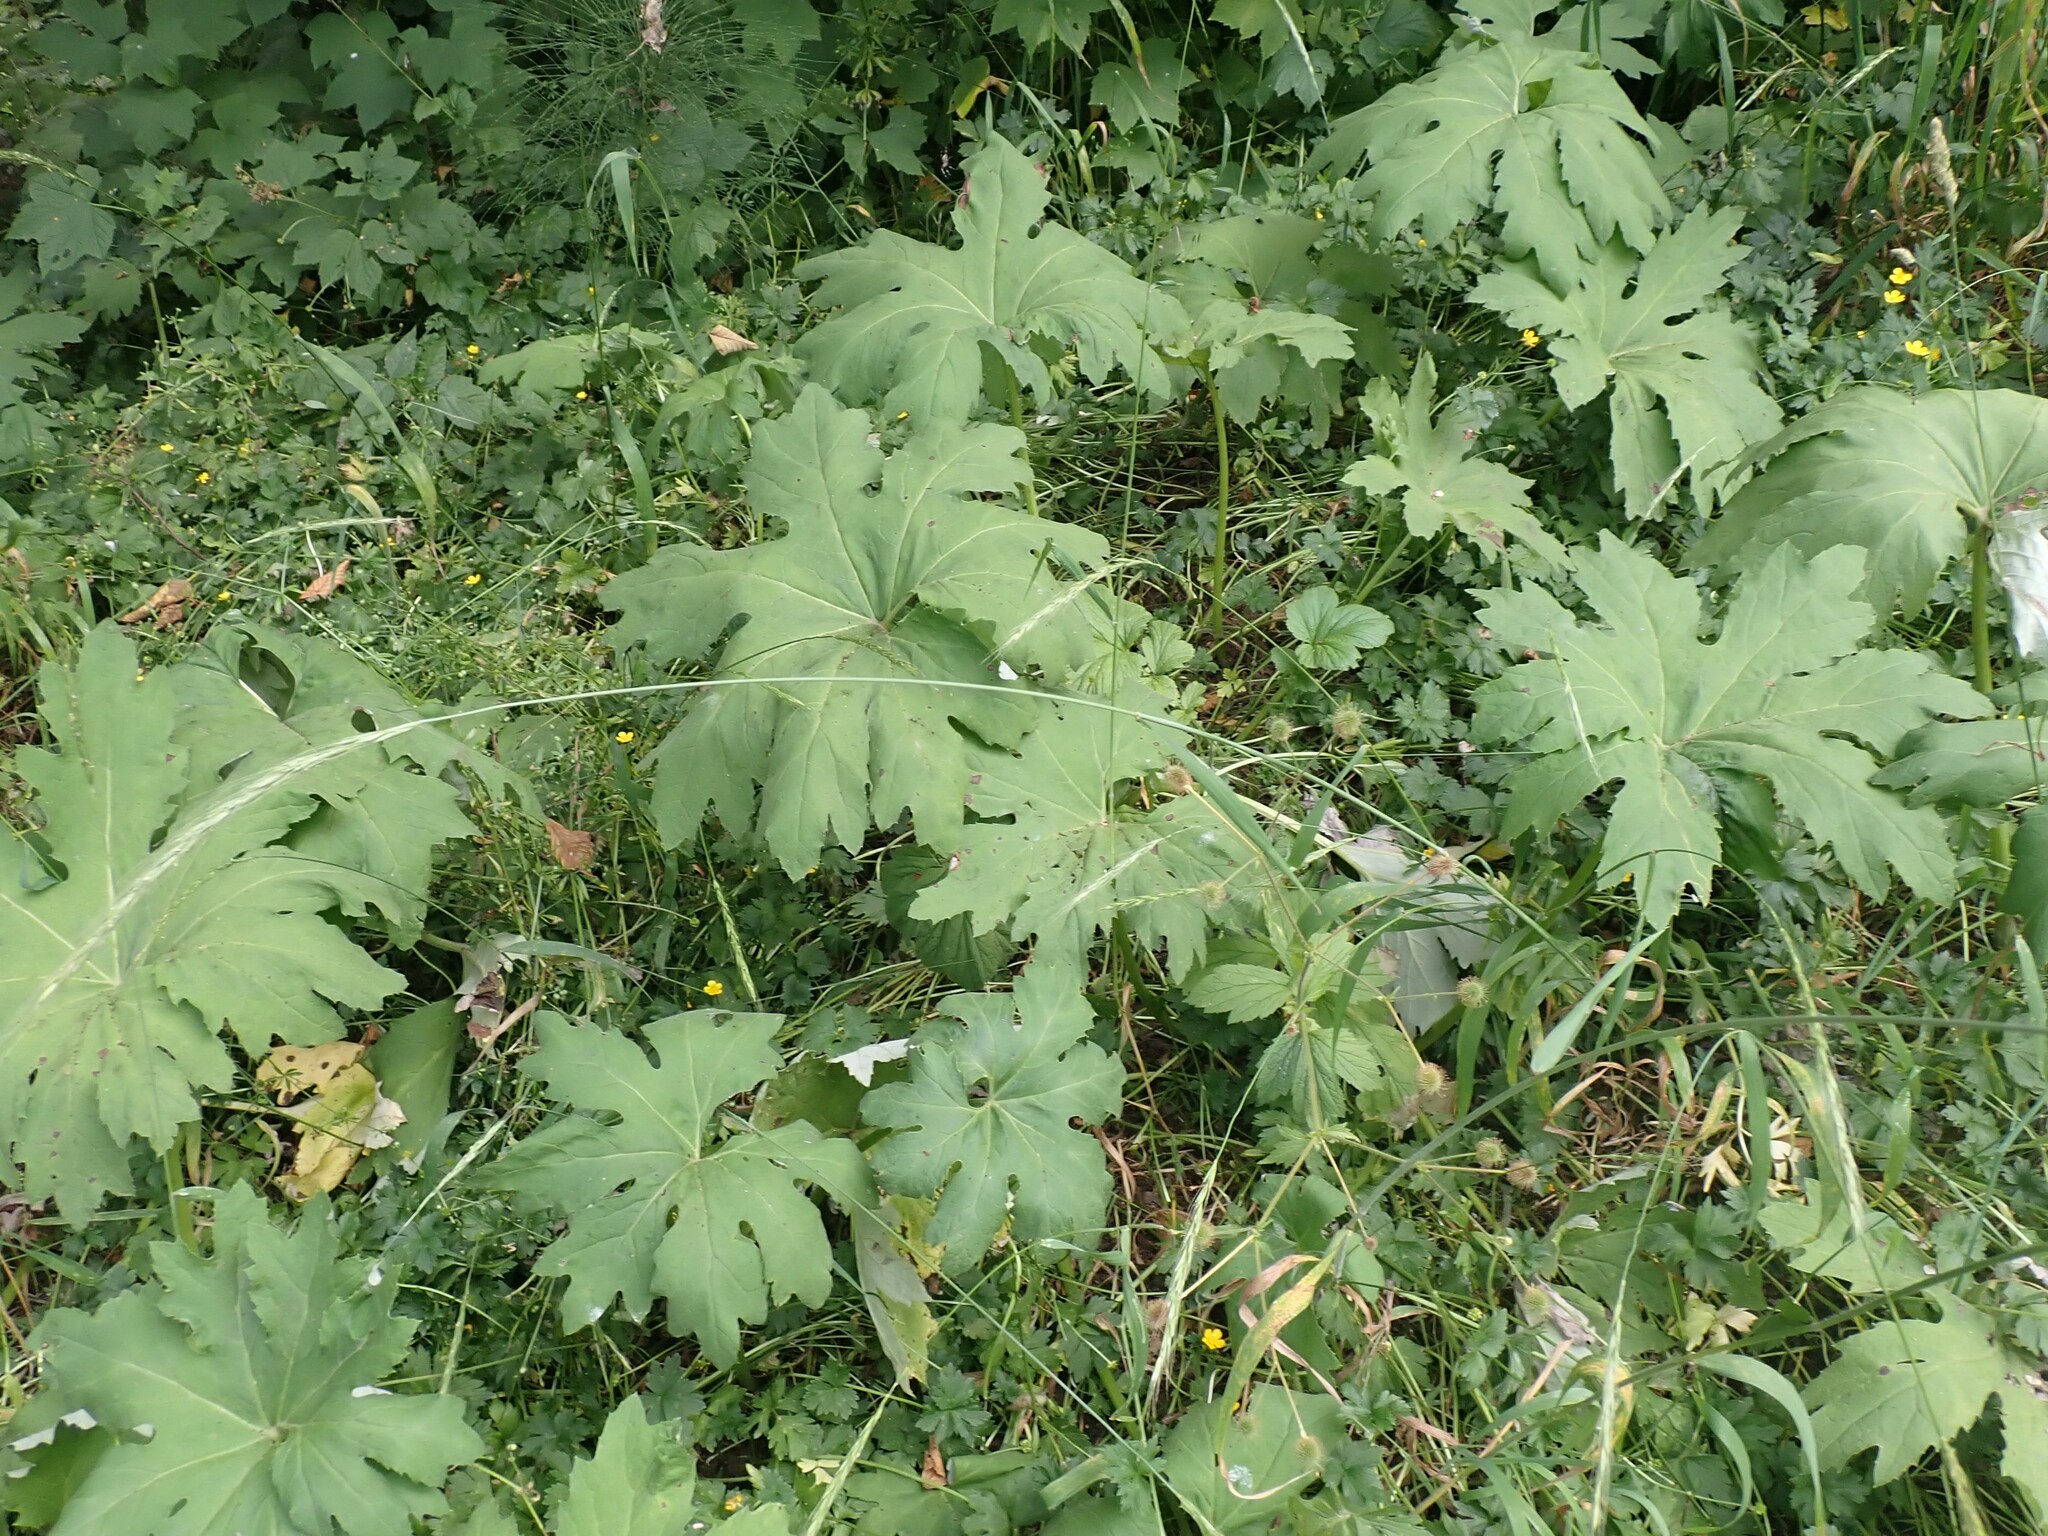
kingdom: Plantae
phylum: Tracheophyta
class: Magnoliopsida
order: Asterales
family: Asteraceae
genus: Petasites
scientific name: Petasites frigidus
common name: Arctic butterbur
